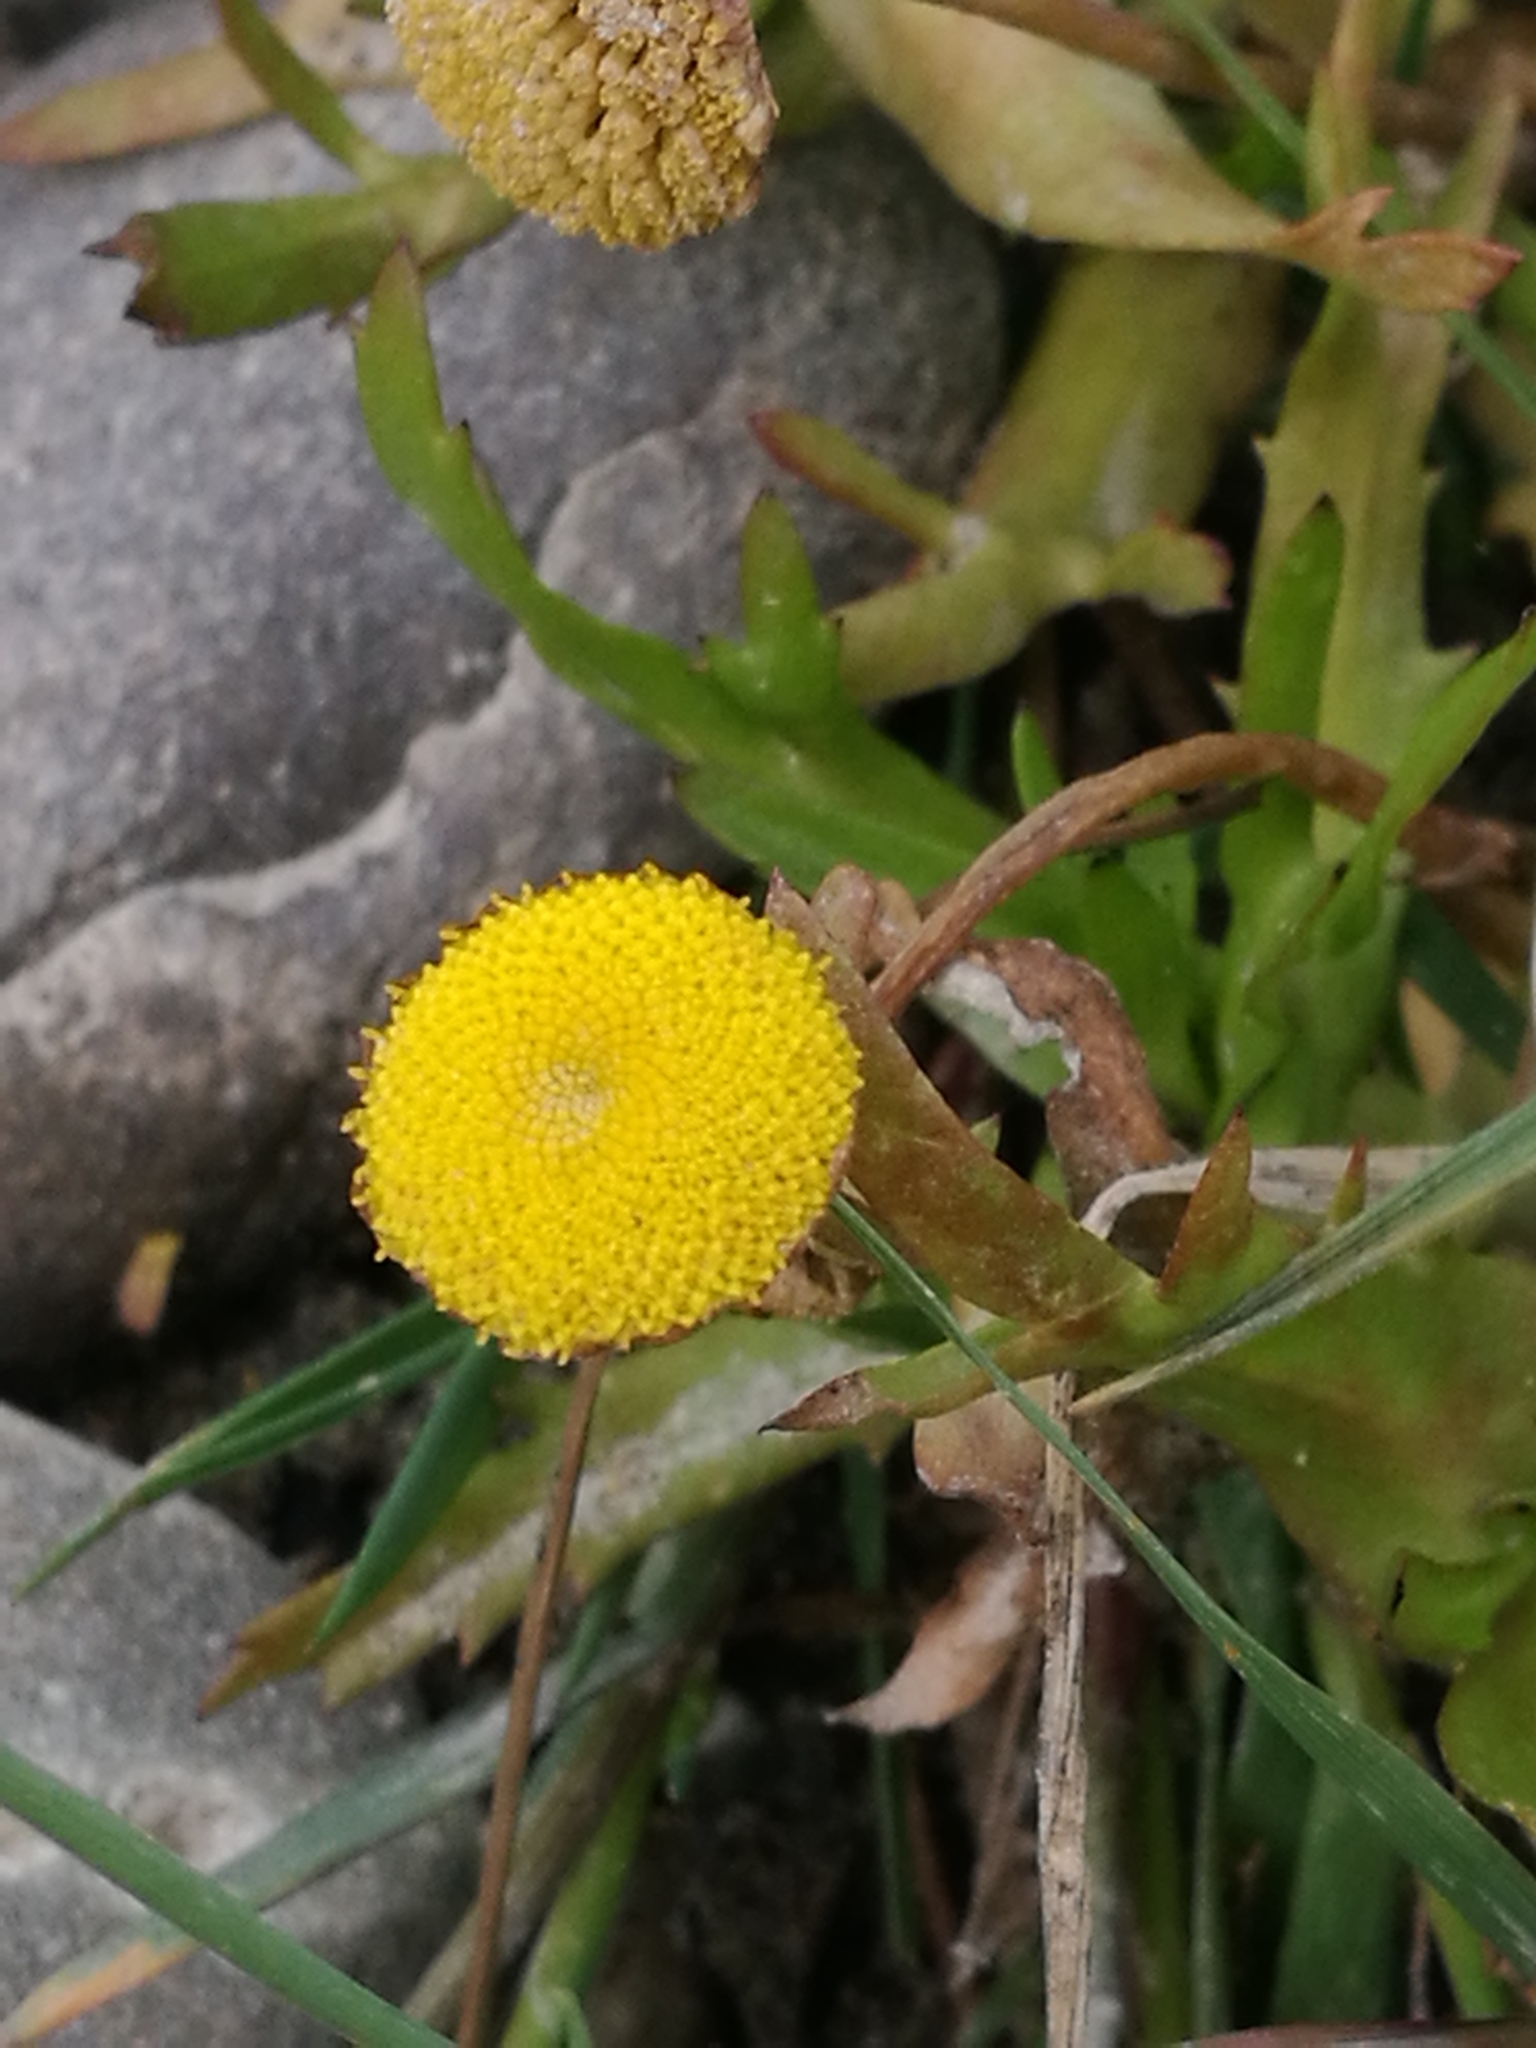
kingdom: Plantae
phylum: Tracheophyta
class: Magnoliopsida
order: Asterales
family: Asteraceae
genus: Cotula
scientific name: Cotula coronopifolia
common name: Buttonweed
